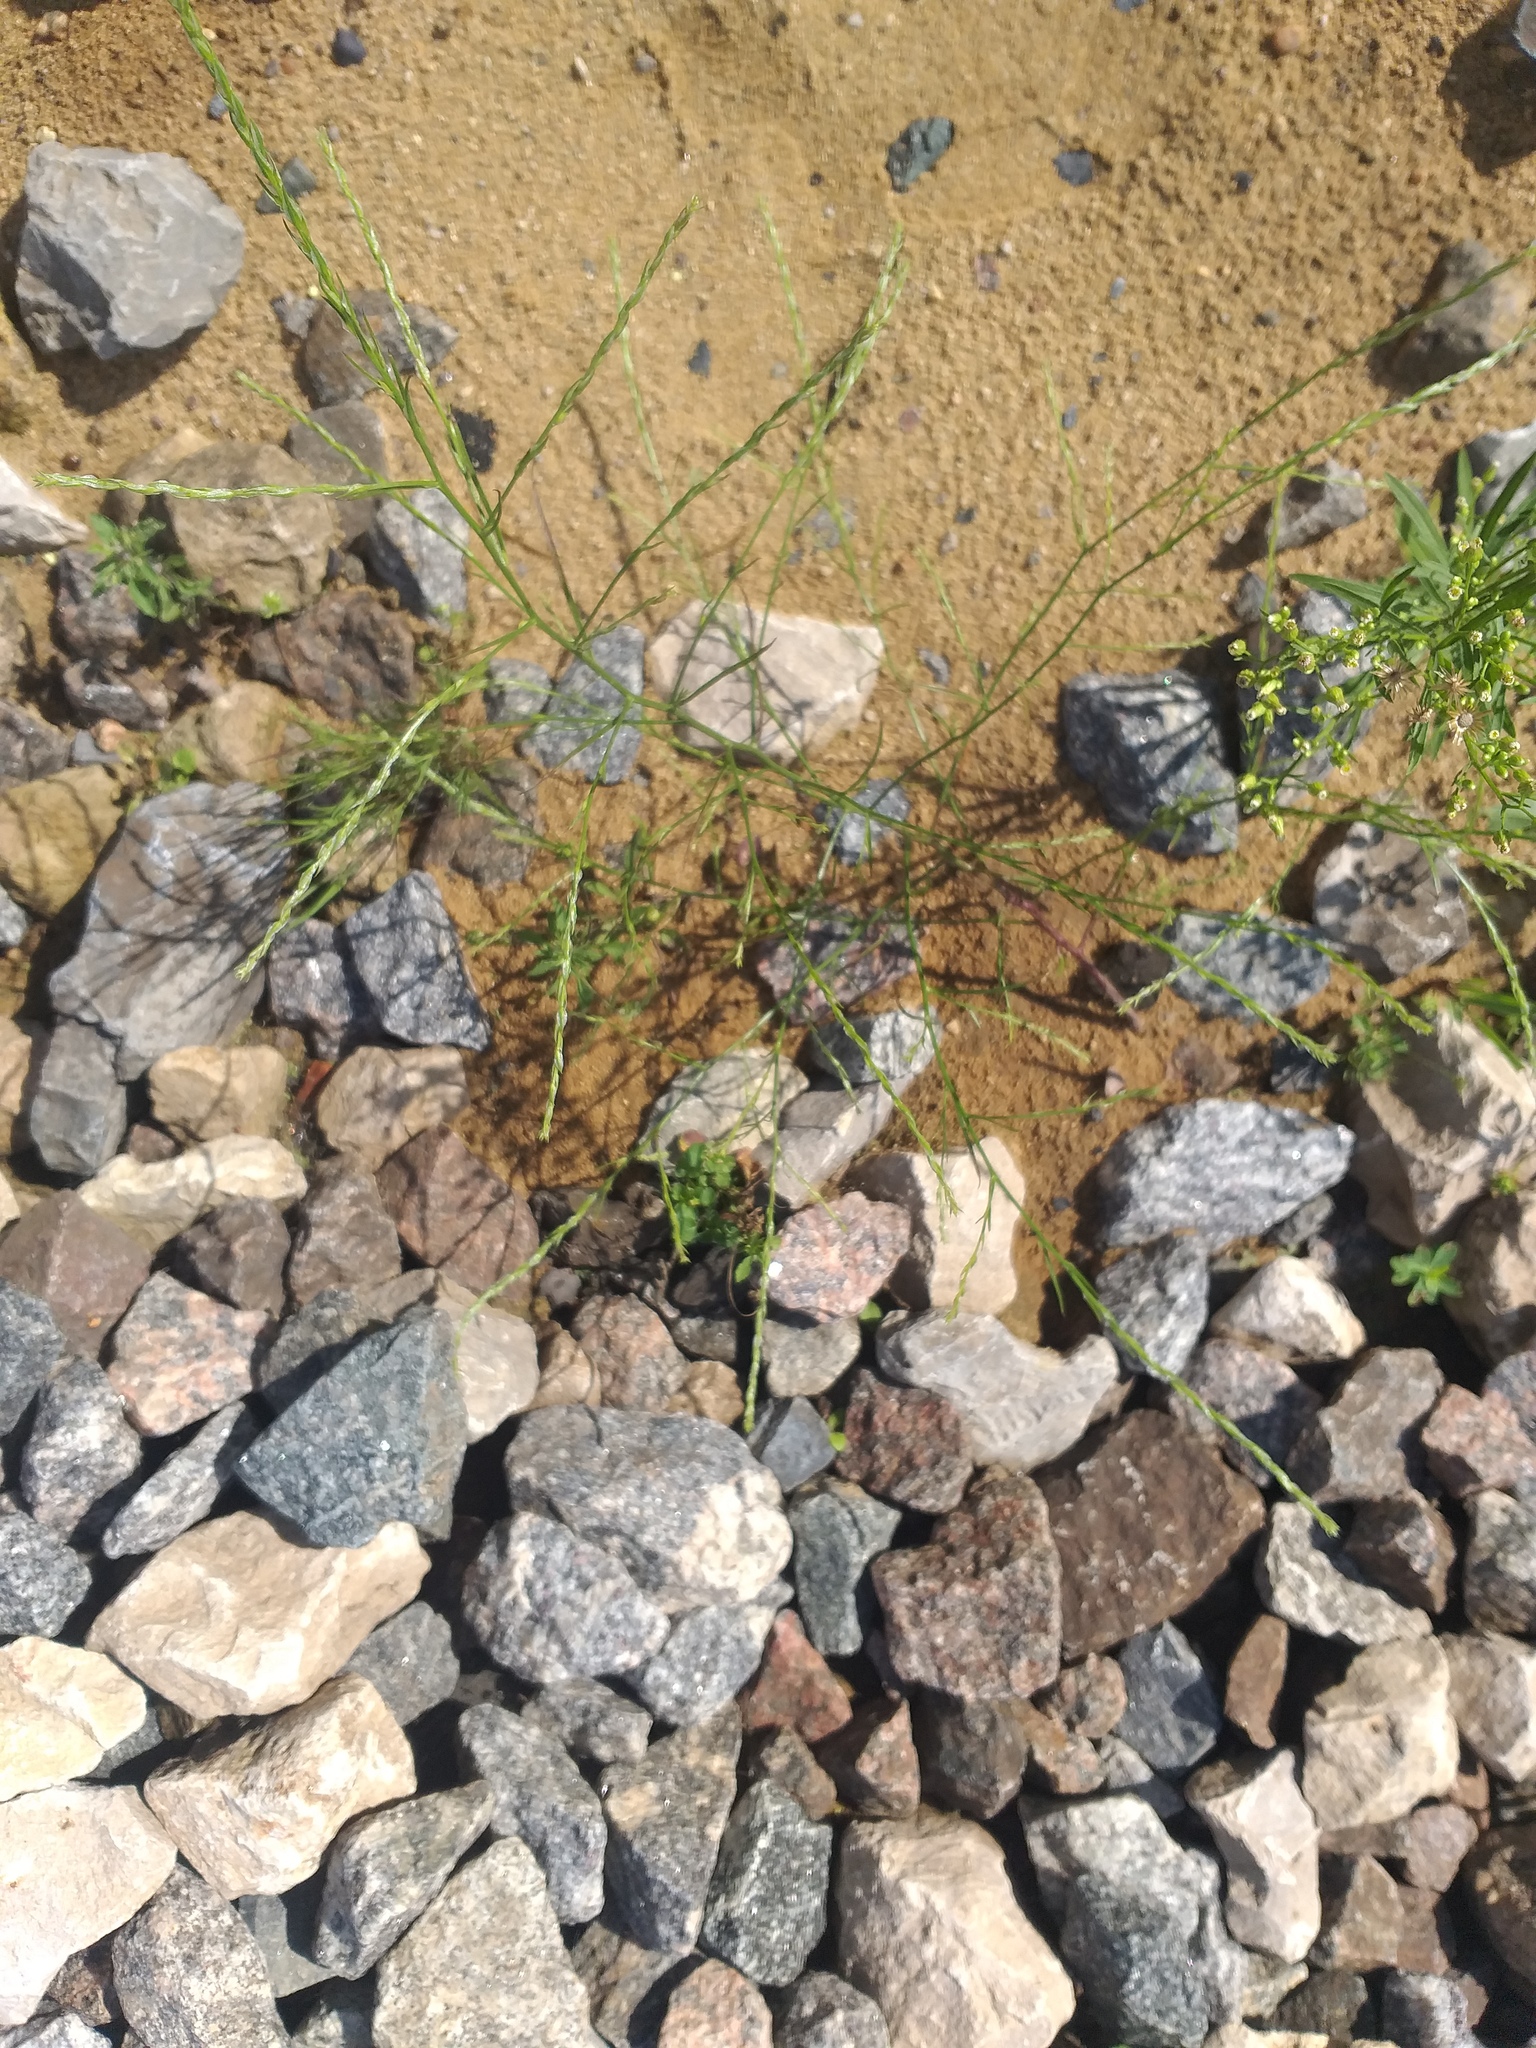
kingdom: Plantae
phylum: Tracheophyta
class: Magnoliopsida
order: Caryophyllales
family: Amaranthaceae
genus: Corispermum
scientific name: Corispermum declinatum
